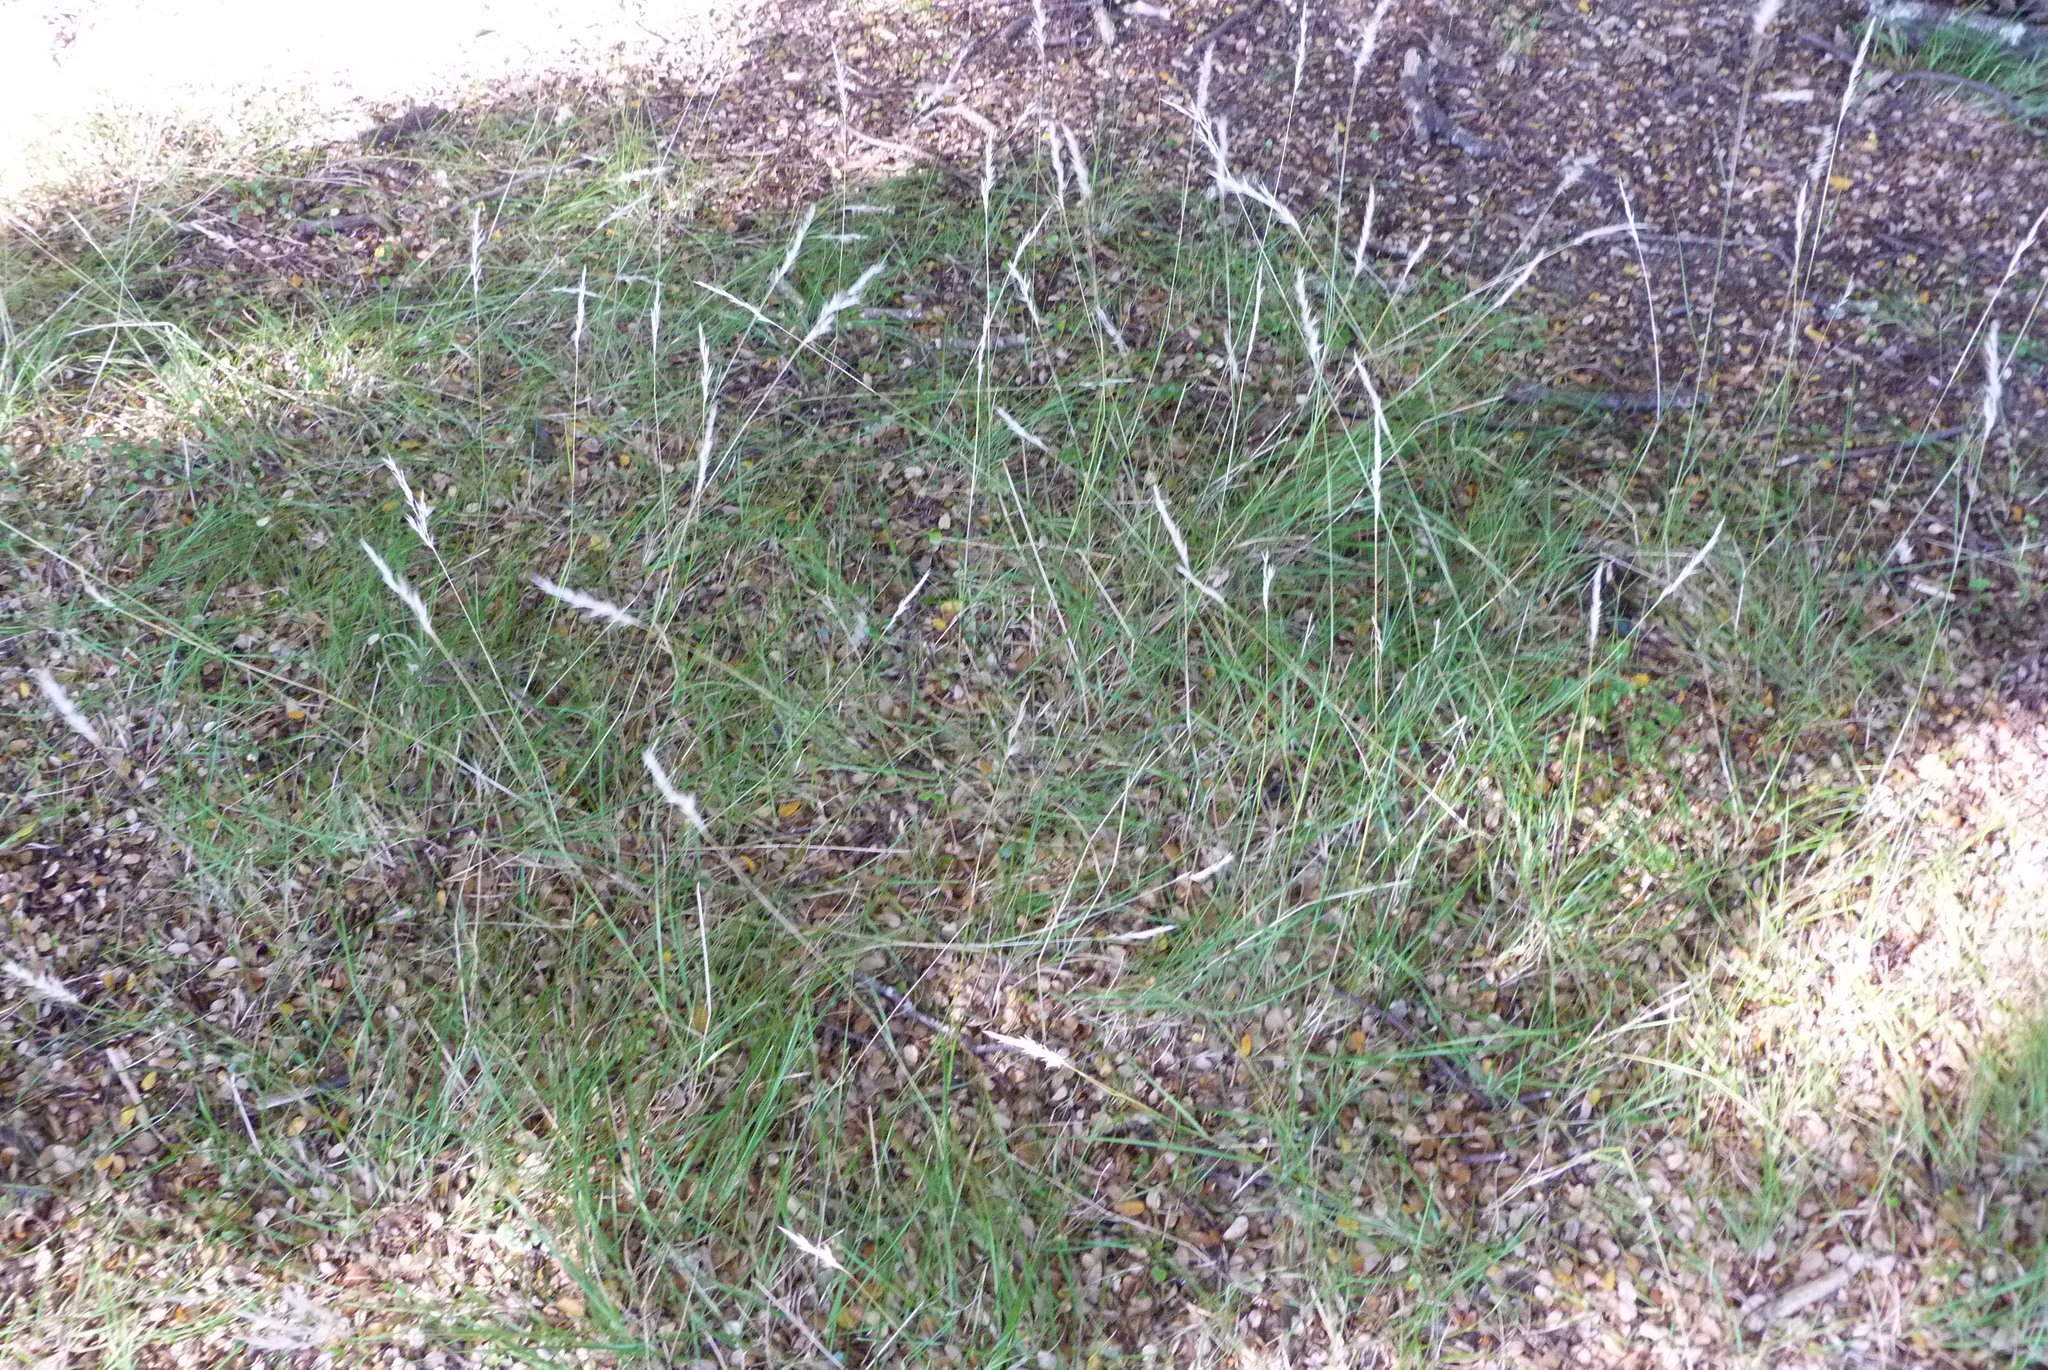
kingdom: Plantae
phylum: Tracheophyta
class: Liliopsida
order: Poales
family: Poaceae
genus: Rytidosperma
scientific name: Rytidosperma gracile
